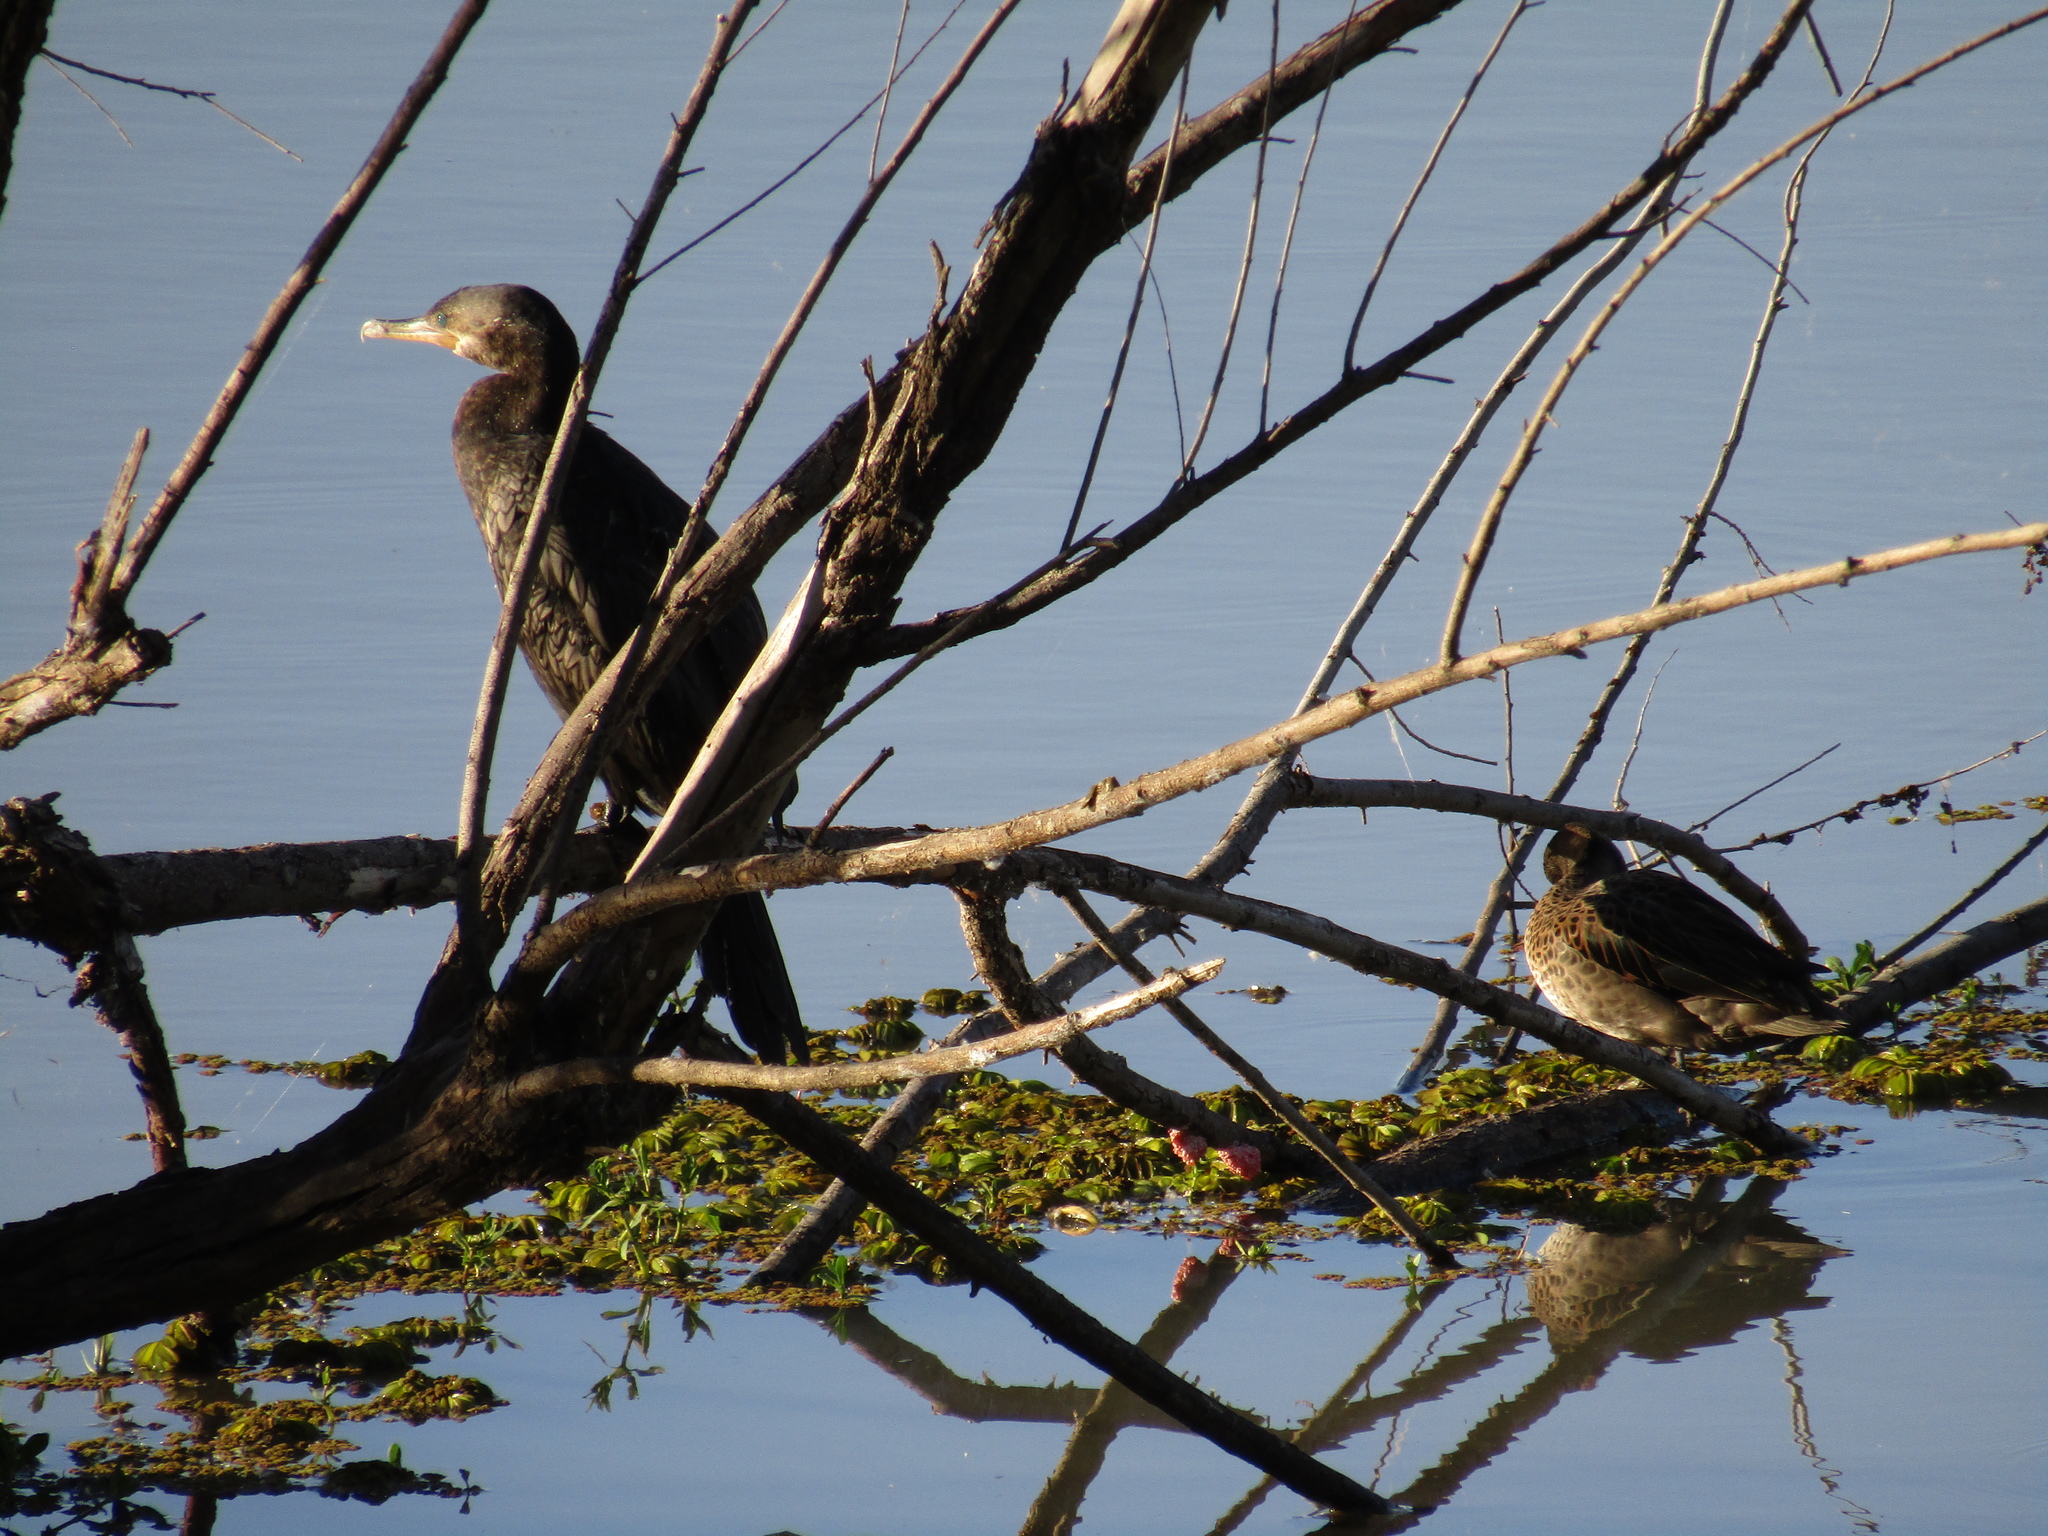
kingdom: Animalia
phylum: Chordata
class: Aves
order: Suliformes
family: Phalacrocoracidae
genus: Phalacrocorax
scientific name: Phalacrocorax brasilianus
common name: Neotropic cormorant
